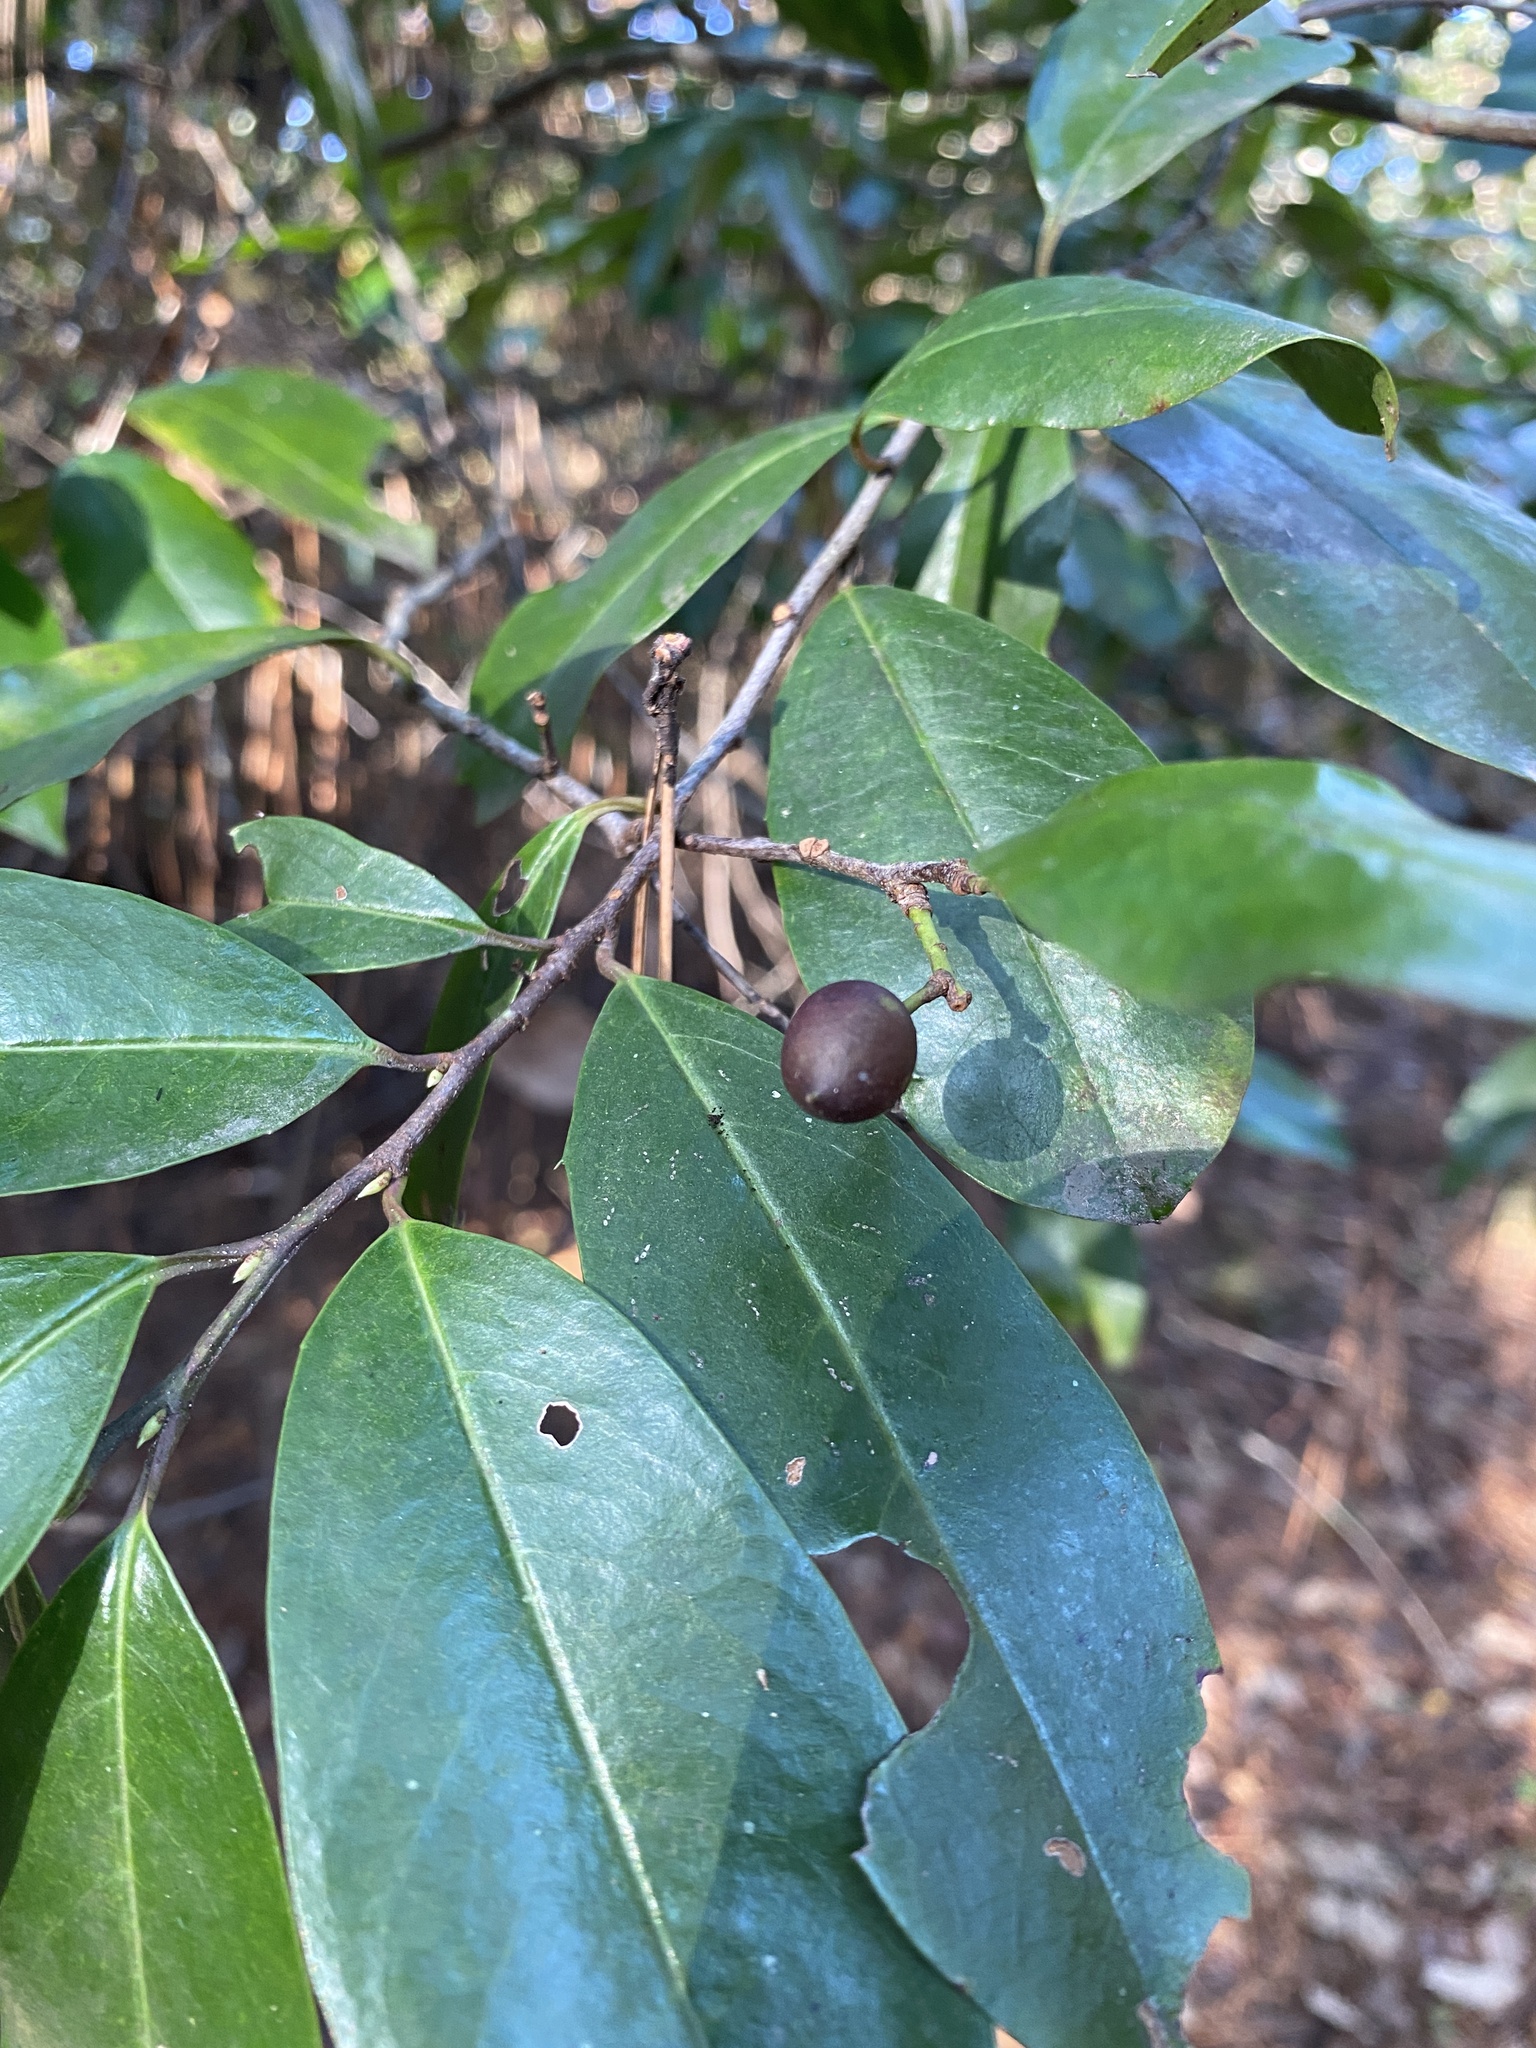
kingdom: Plantae
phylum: Tracheophyta
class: Magnoliopsida
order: Rosales
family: Rosaceae
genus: Prunus
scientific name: Prunus caroliniana
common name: Carolina laurel cherry
